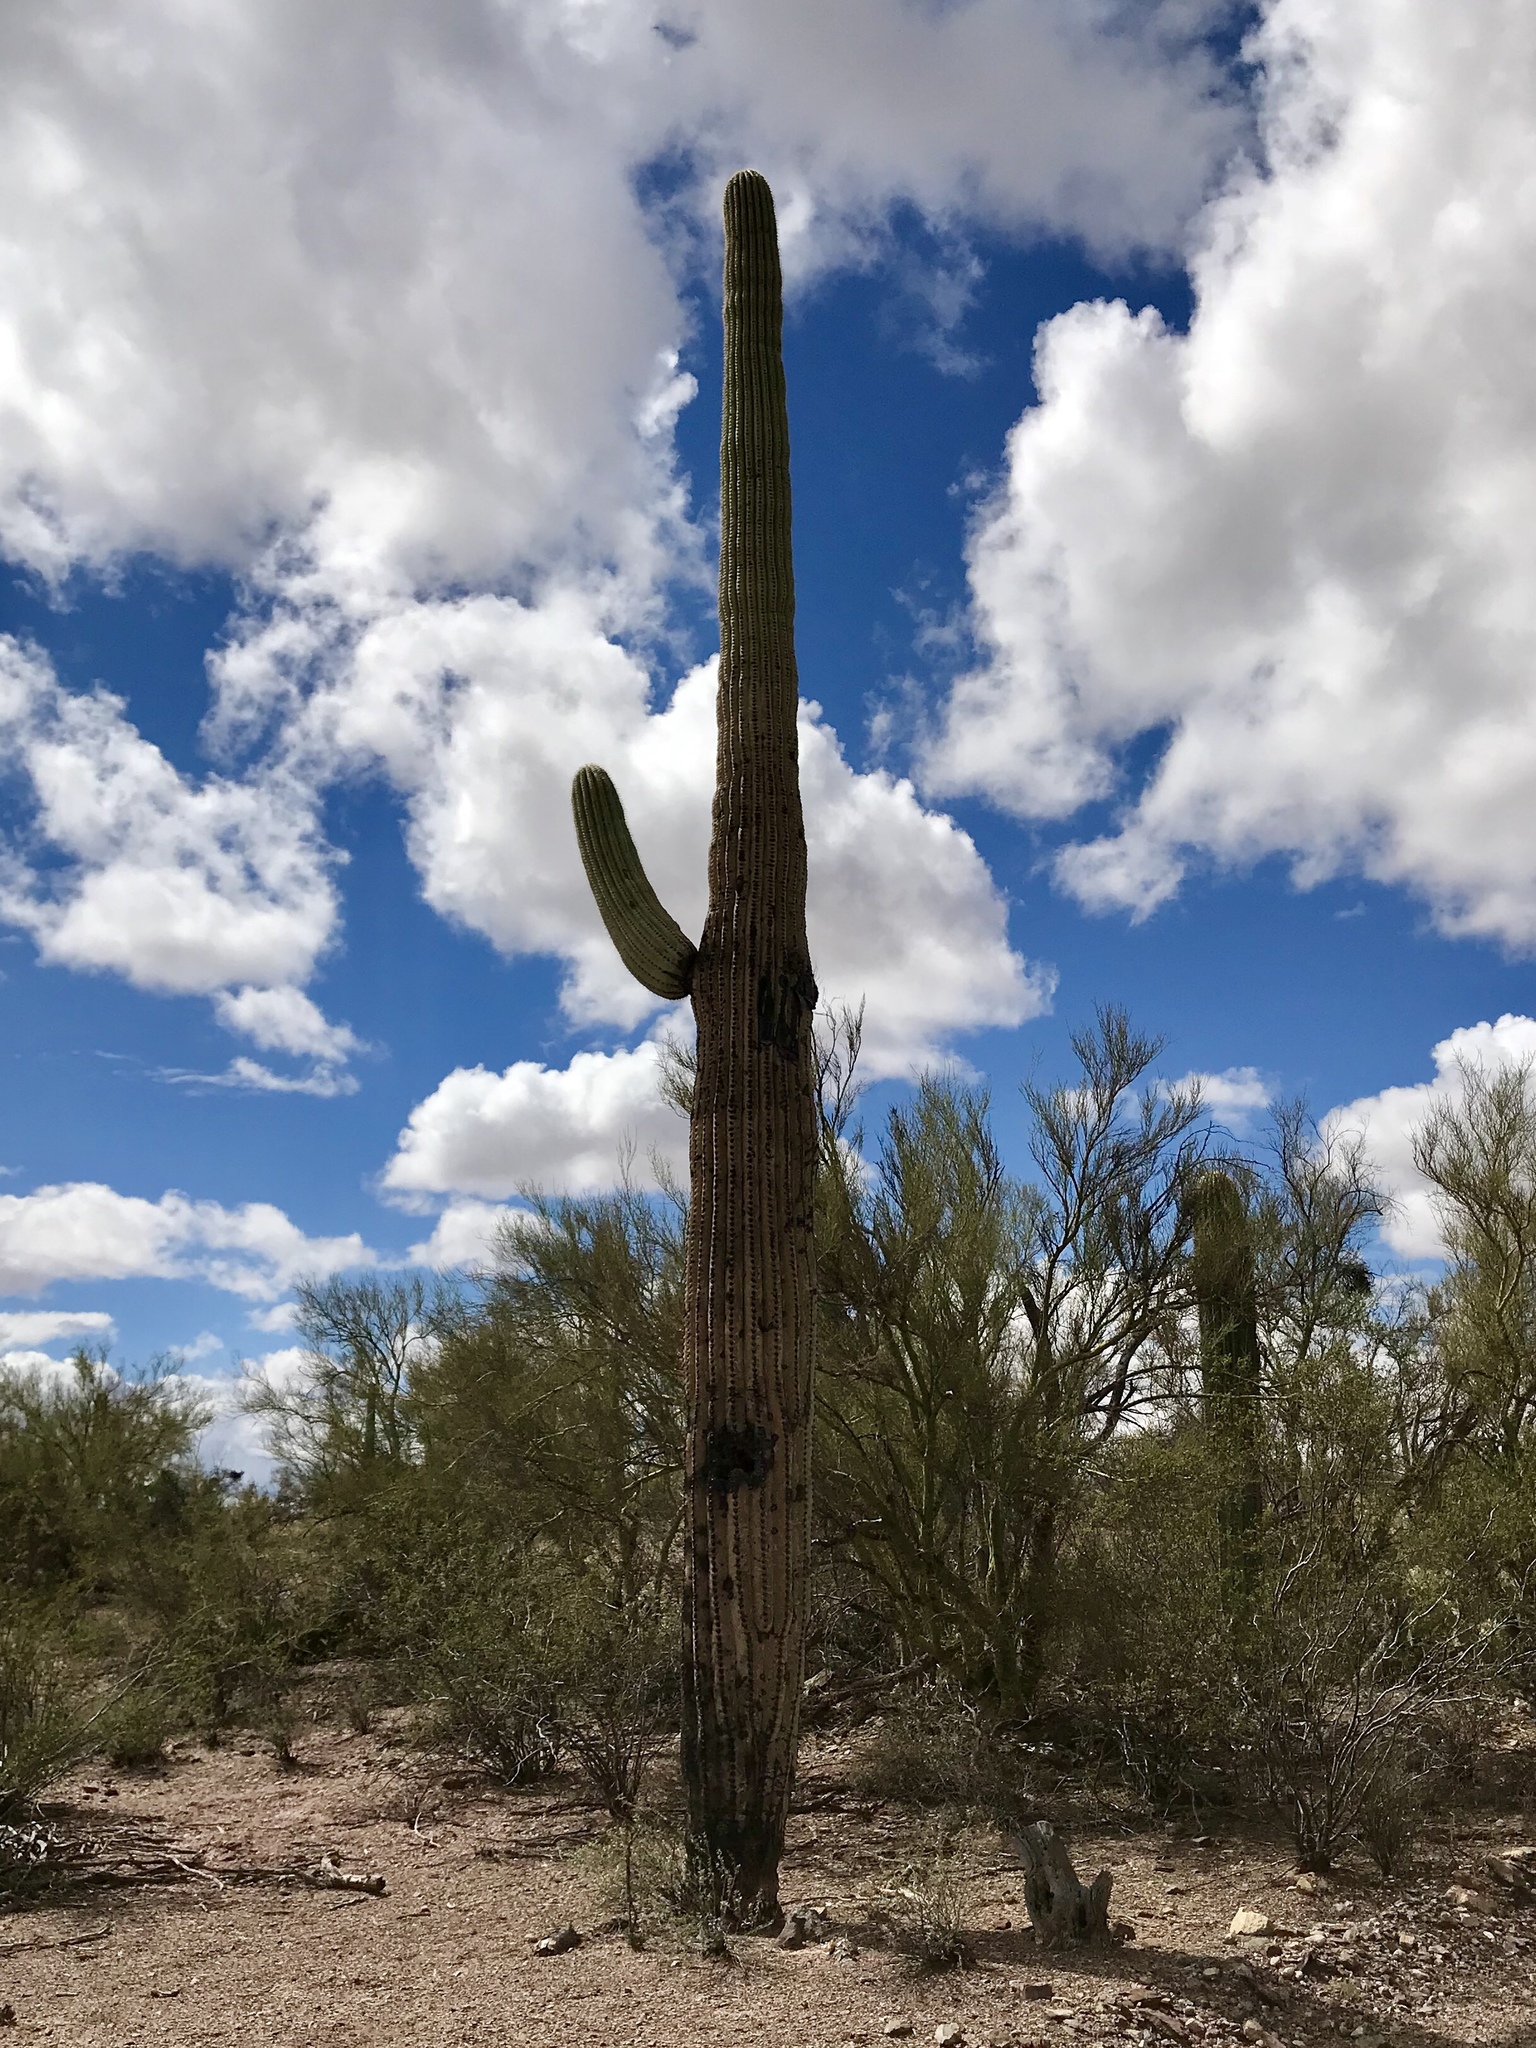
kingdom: Plantae
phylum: Tracheophyta
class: Magnoliopsida
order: Caryophyllales
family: Cactaceae
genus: Carnegiea
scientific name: Carnegiea gigantea
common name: Saguaro
